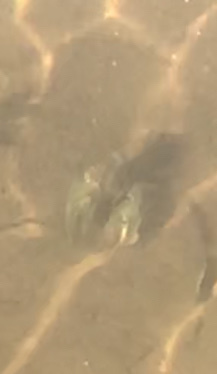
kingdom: Animalia
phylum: Arthropoda
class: Malacostraca
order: Decapoda
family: Cambaridae
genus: Faxonius
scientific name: Faxonius virilis
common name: Virile crayfish
